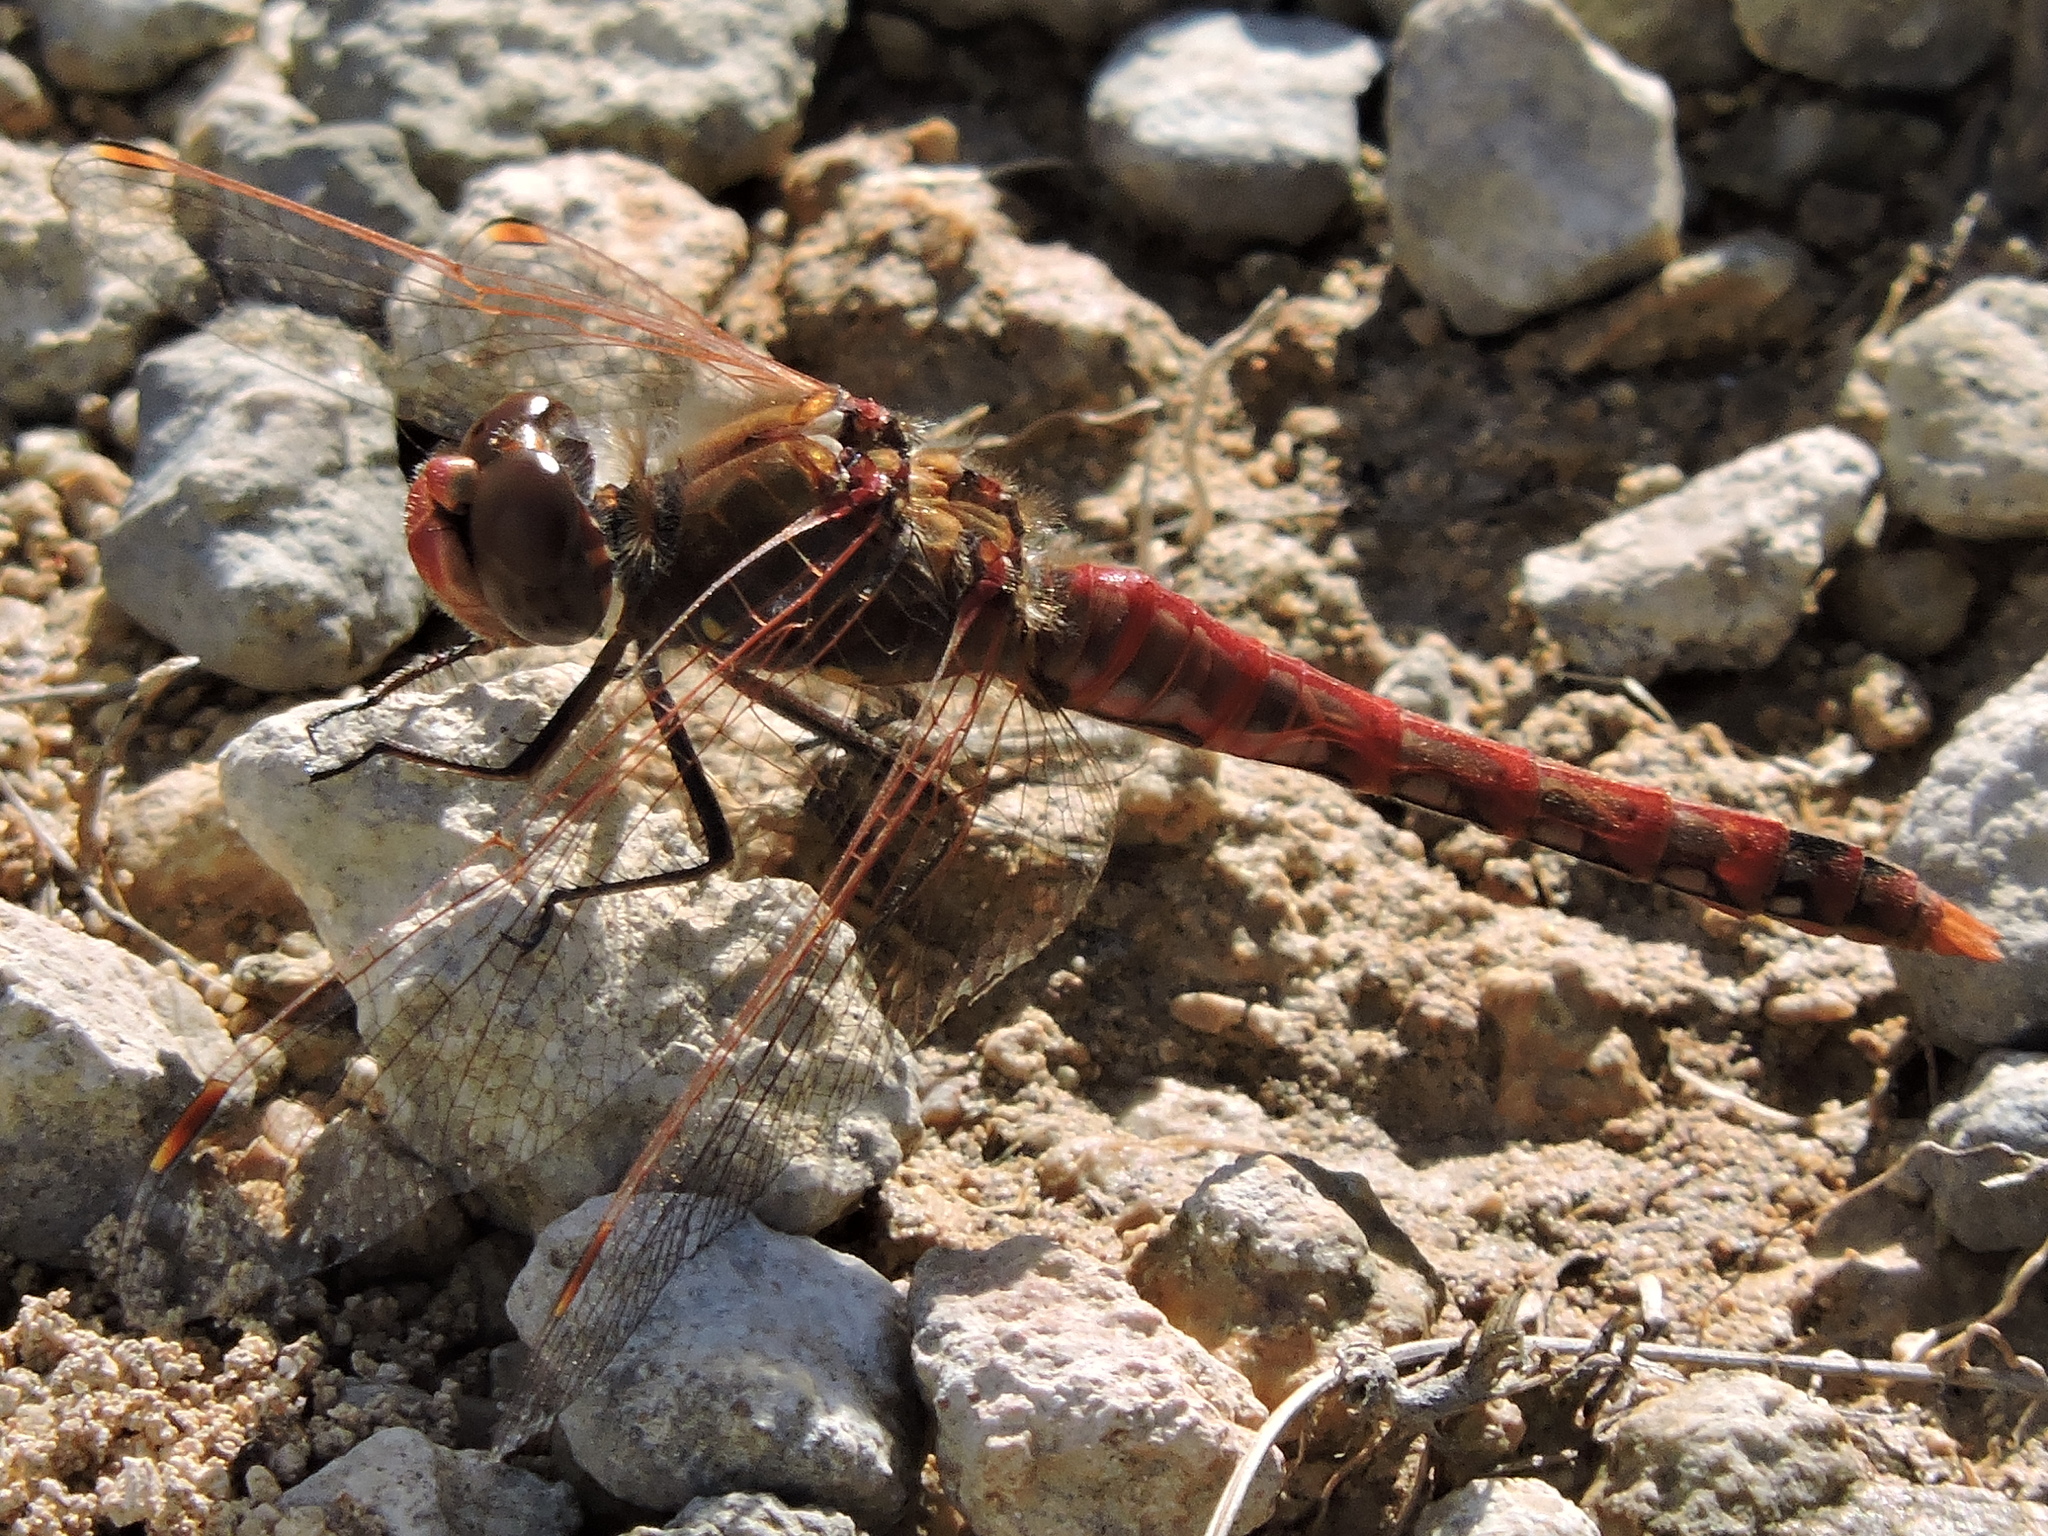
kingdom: Animalia
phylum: Arthropoda
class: Insecta
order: Odonata
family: Libellulidae
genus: Sympetrum
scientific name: Sympetrum corruptum
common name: Variegated meadowhawk
